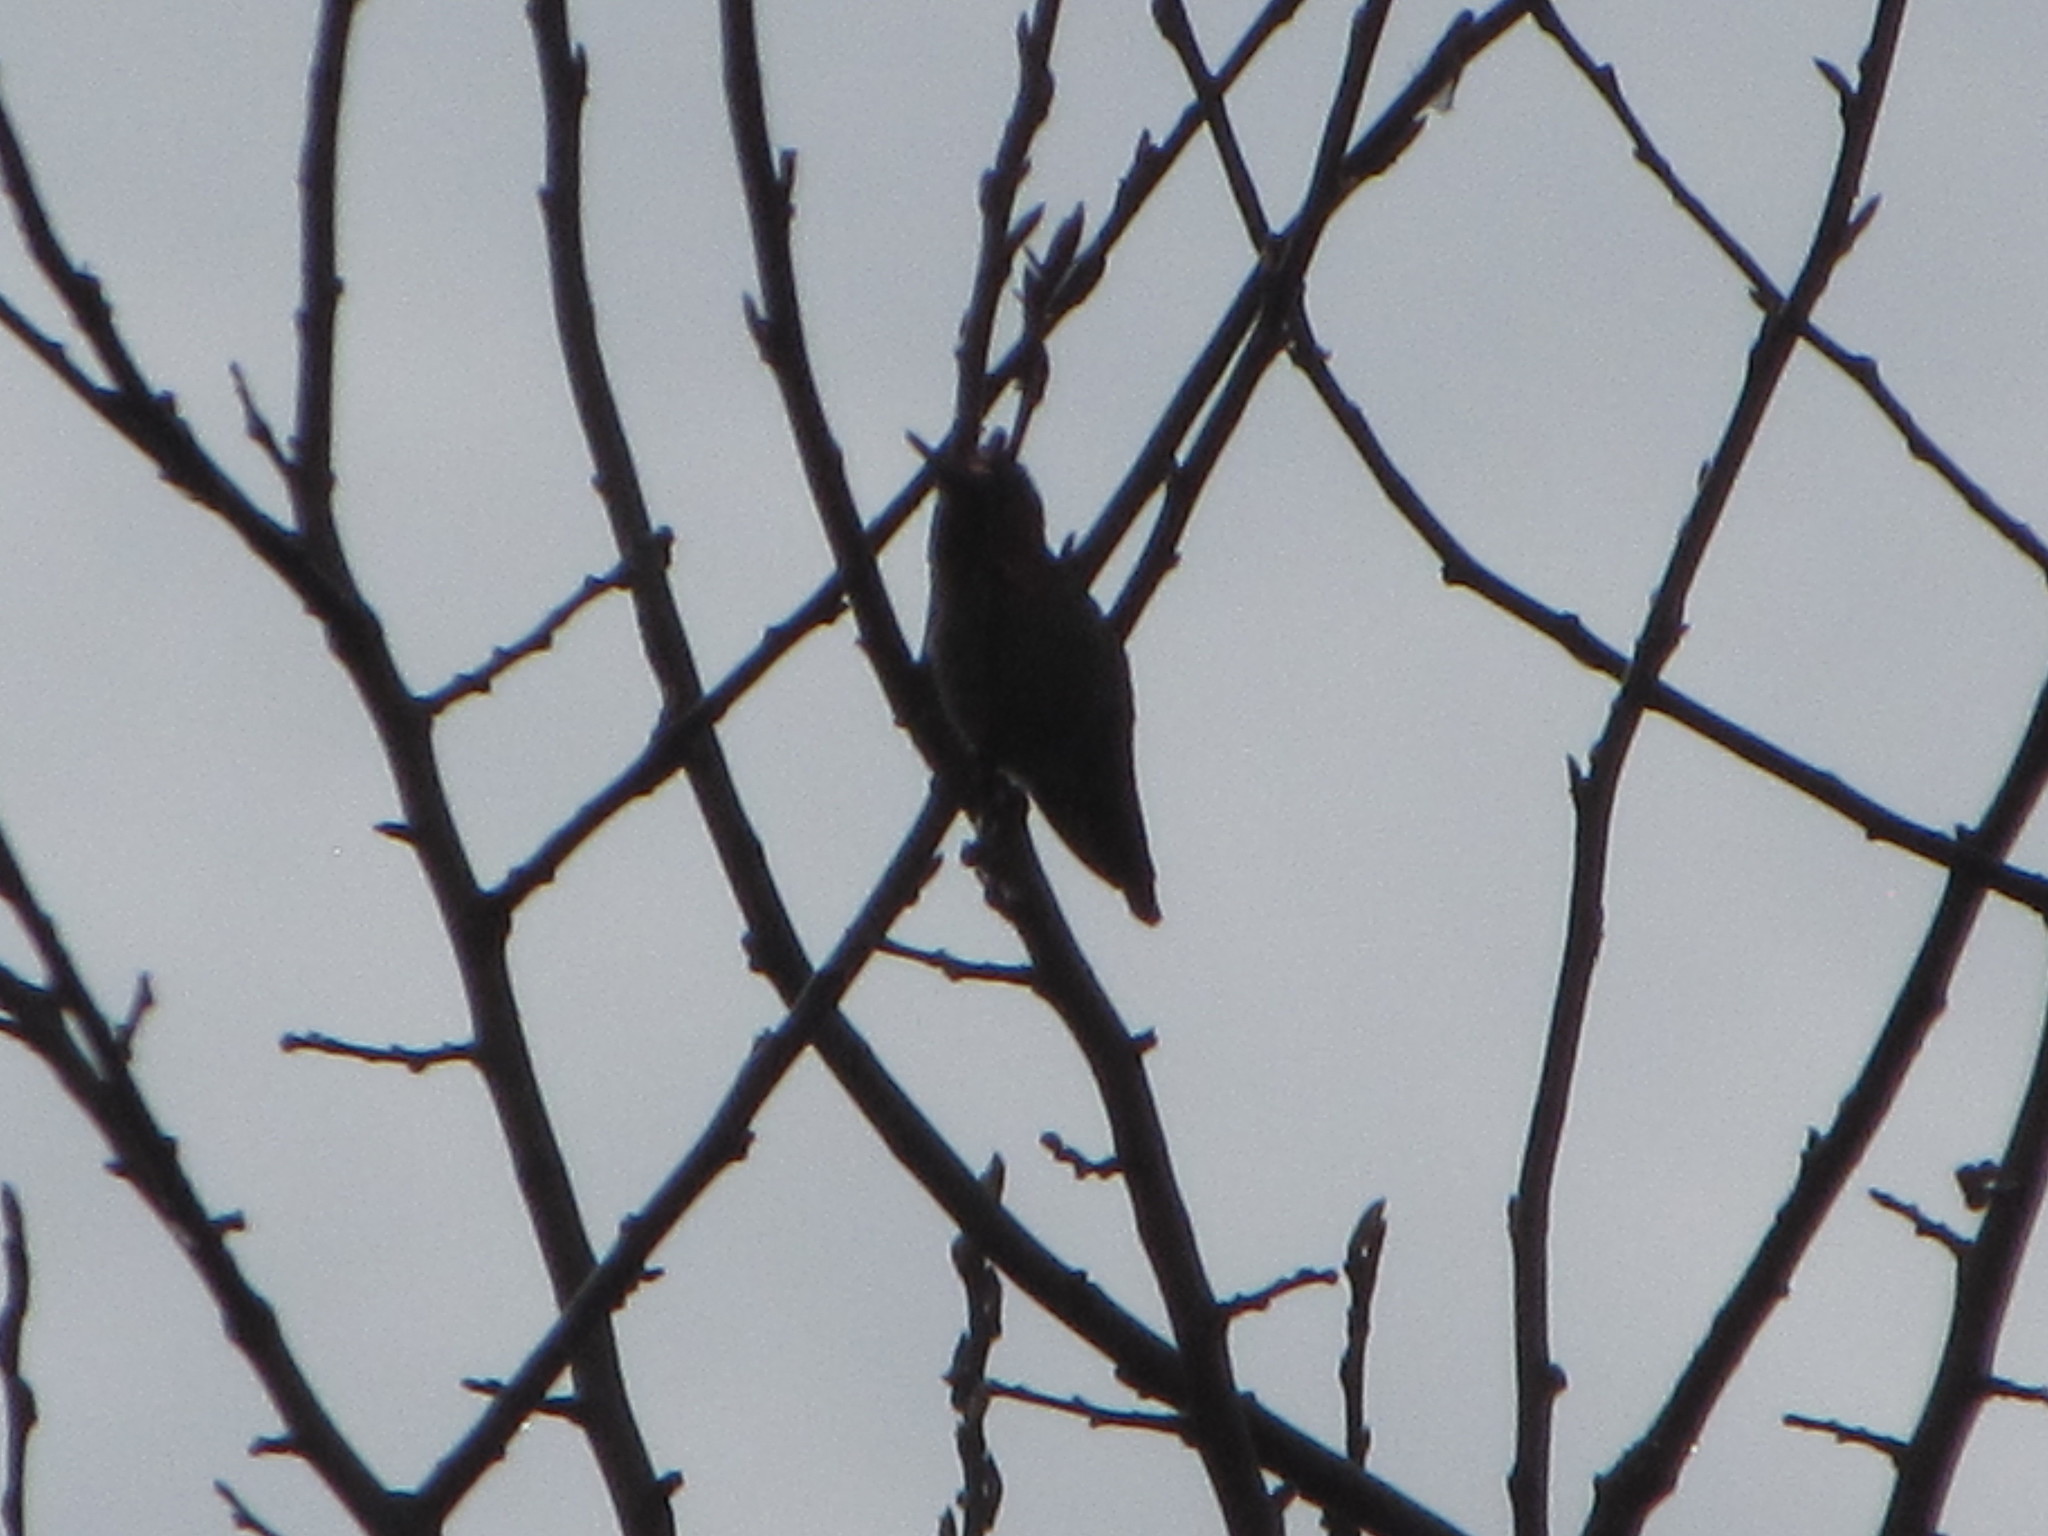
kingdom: Animalia
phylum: Chordata
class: Aves
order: Apodiformes
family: Trochilidae
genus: Calypte
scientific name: Calypte anna
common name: Anna's hummingbird
